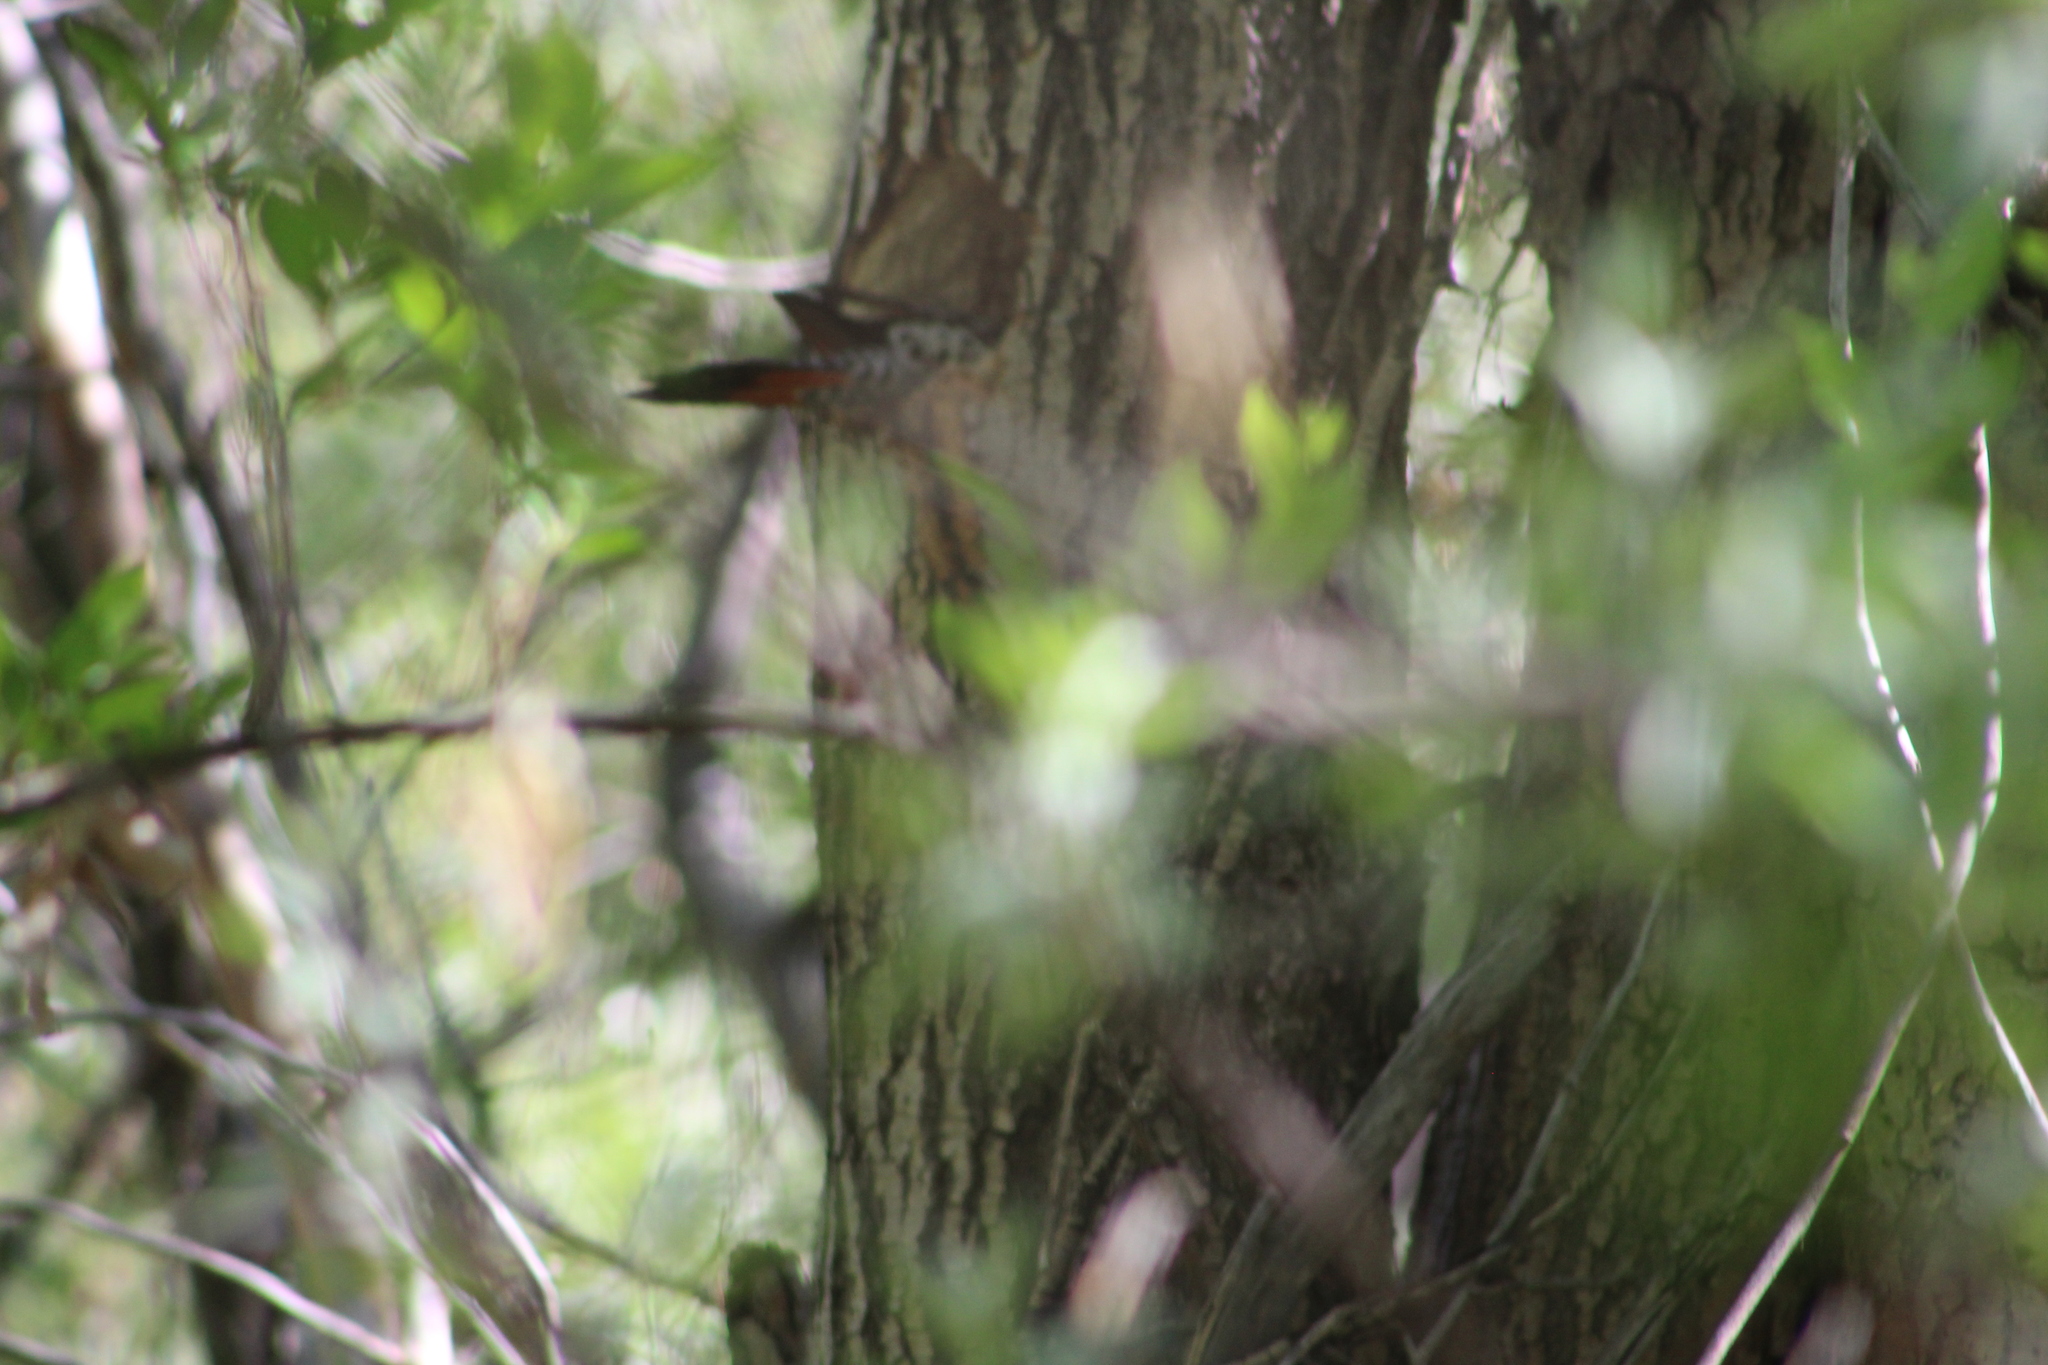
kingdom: Animalia
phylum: Chordata
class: Aves
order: Piciformes
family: Picidae
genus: Colaptes
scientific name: Colaptes auratus
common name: Northern flicker
